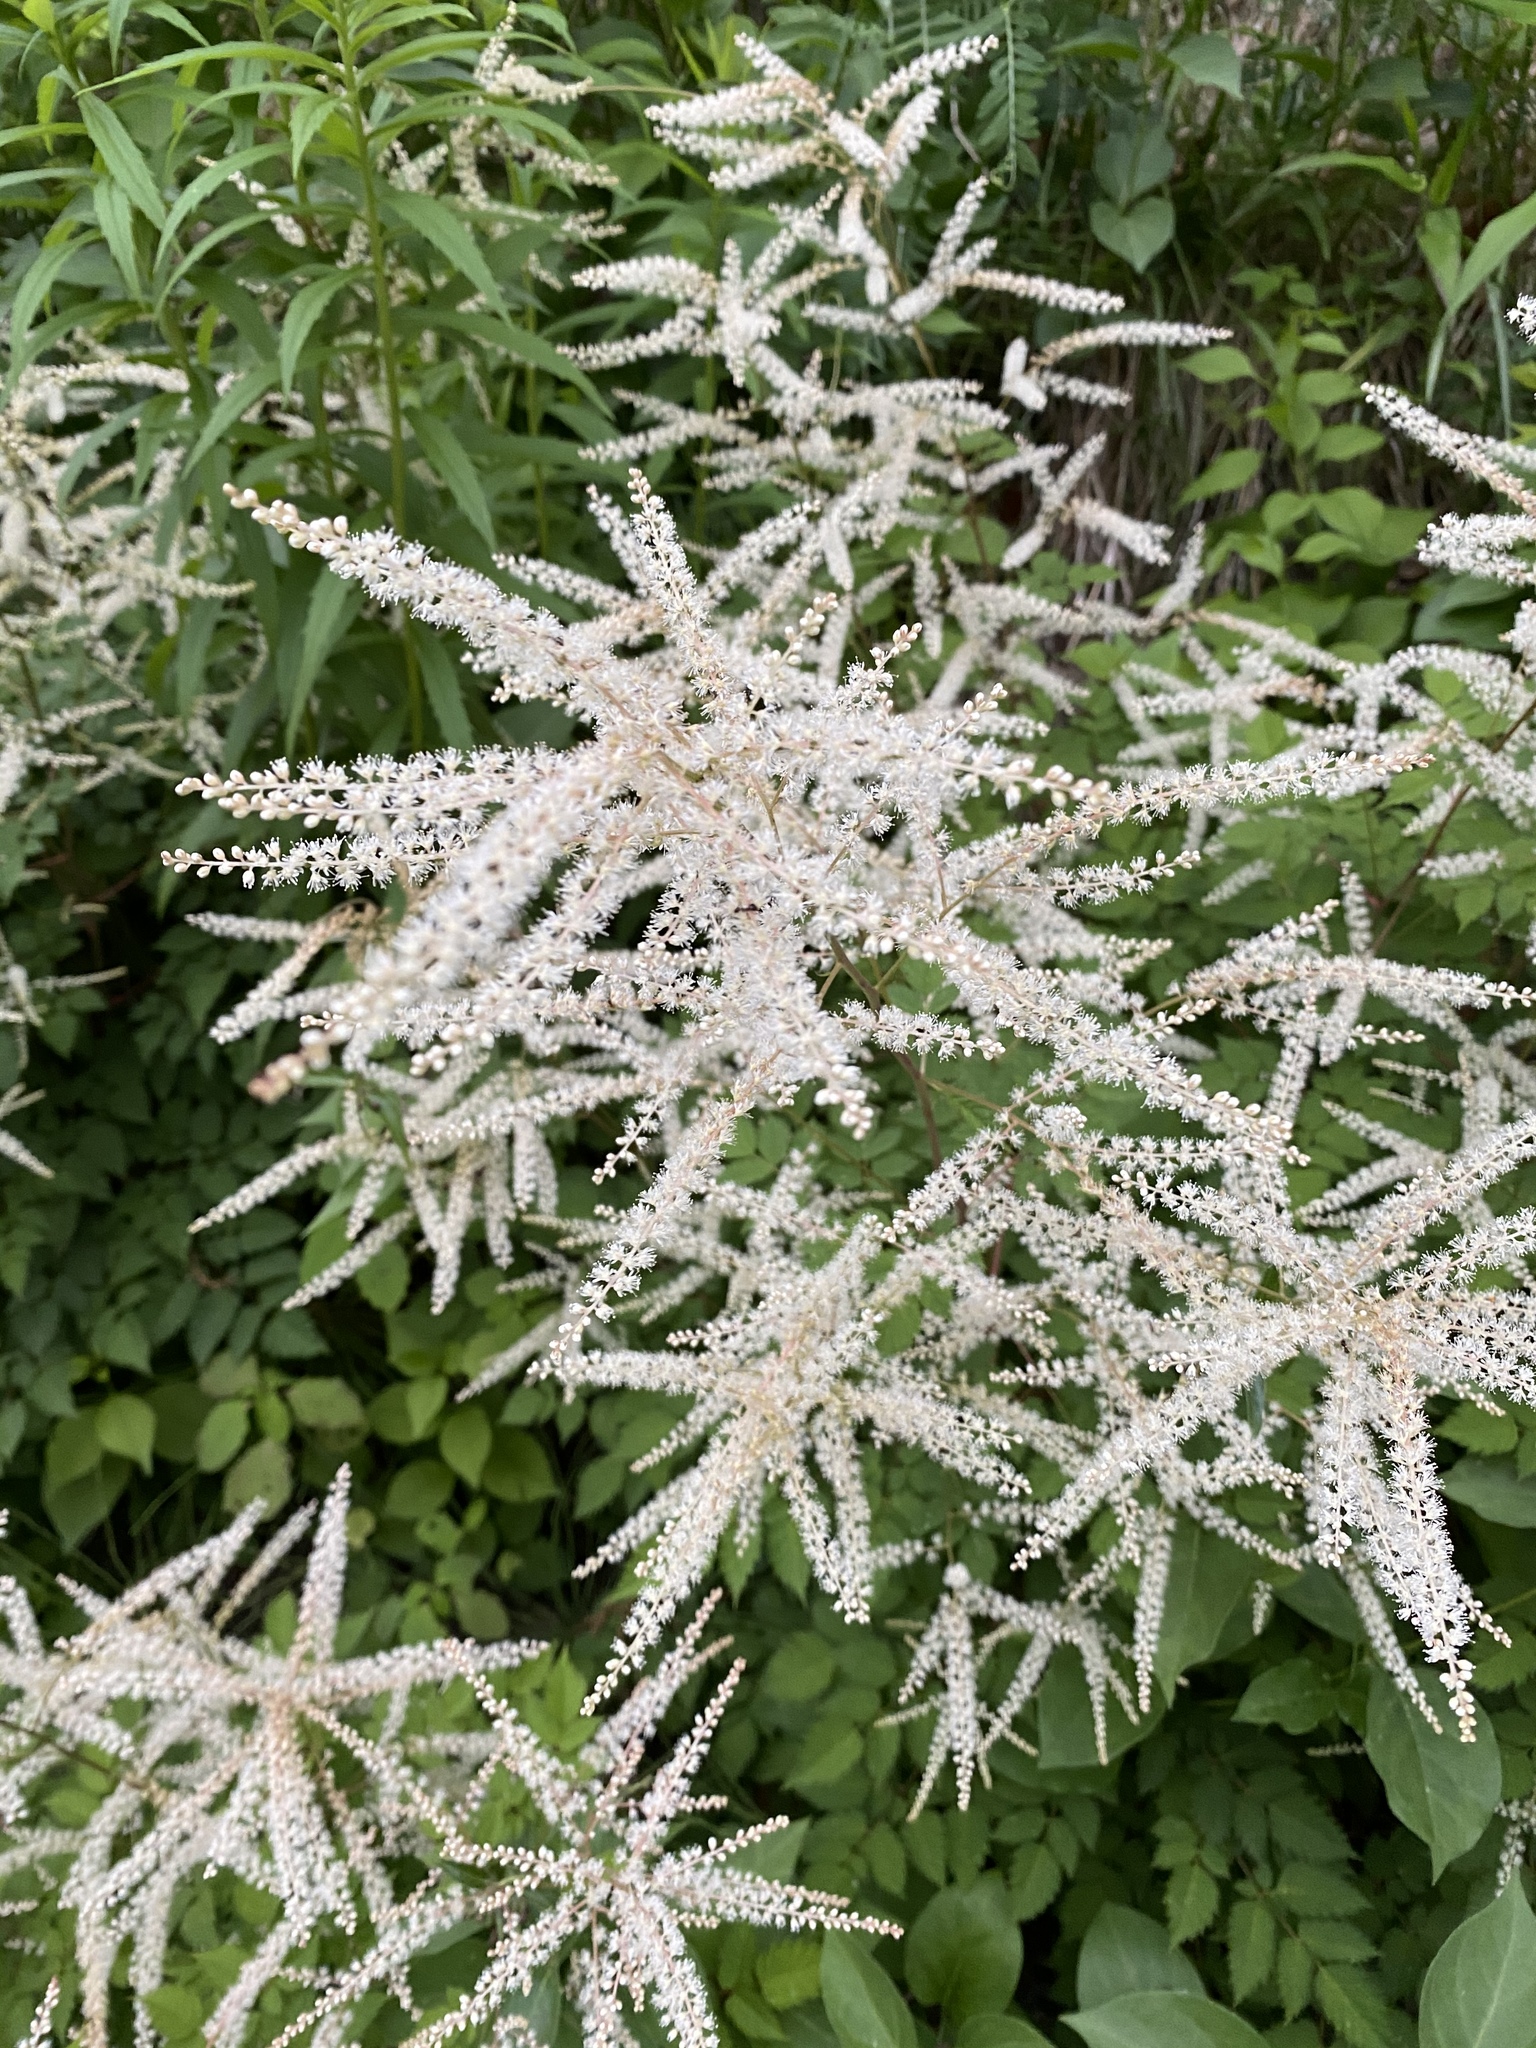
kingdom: Plantae
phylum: Tracheophyta
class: Magnoliopsida
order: Rosales
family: Rosaceae
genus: Aruncus
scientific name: Aruncus dioicus
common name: Buck's-beard
